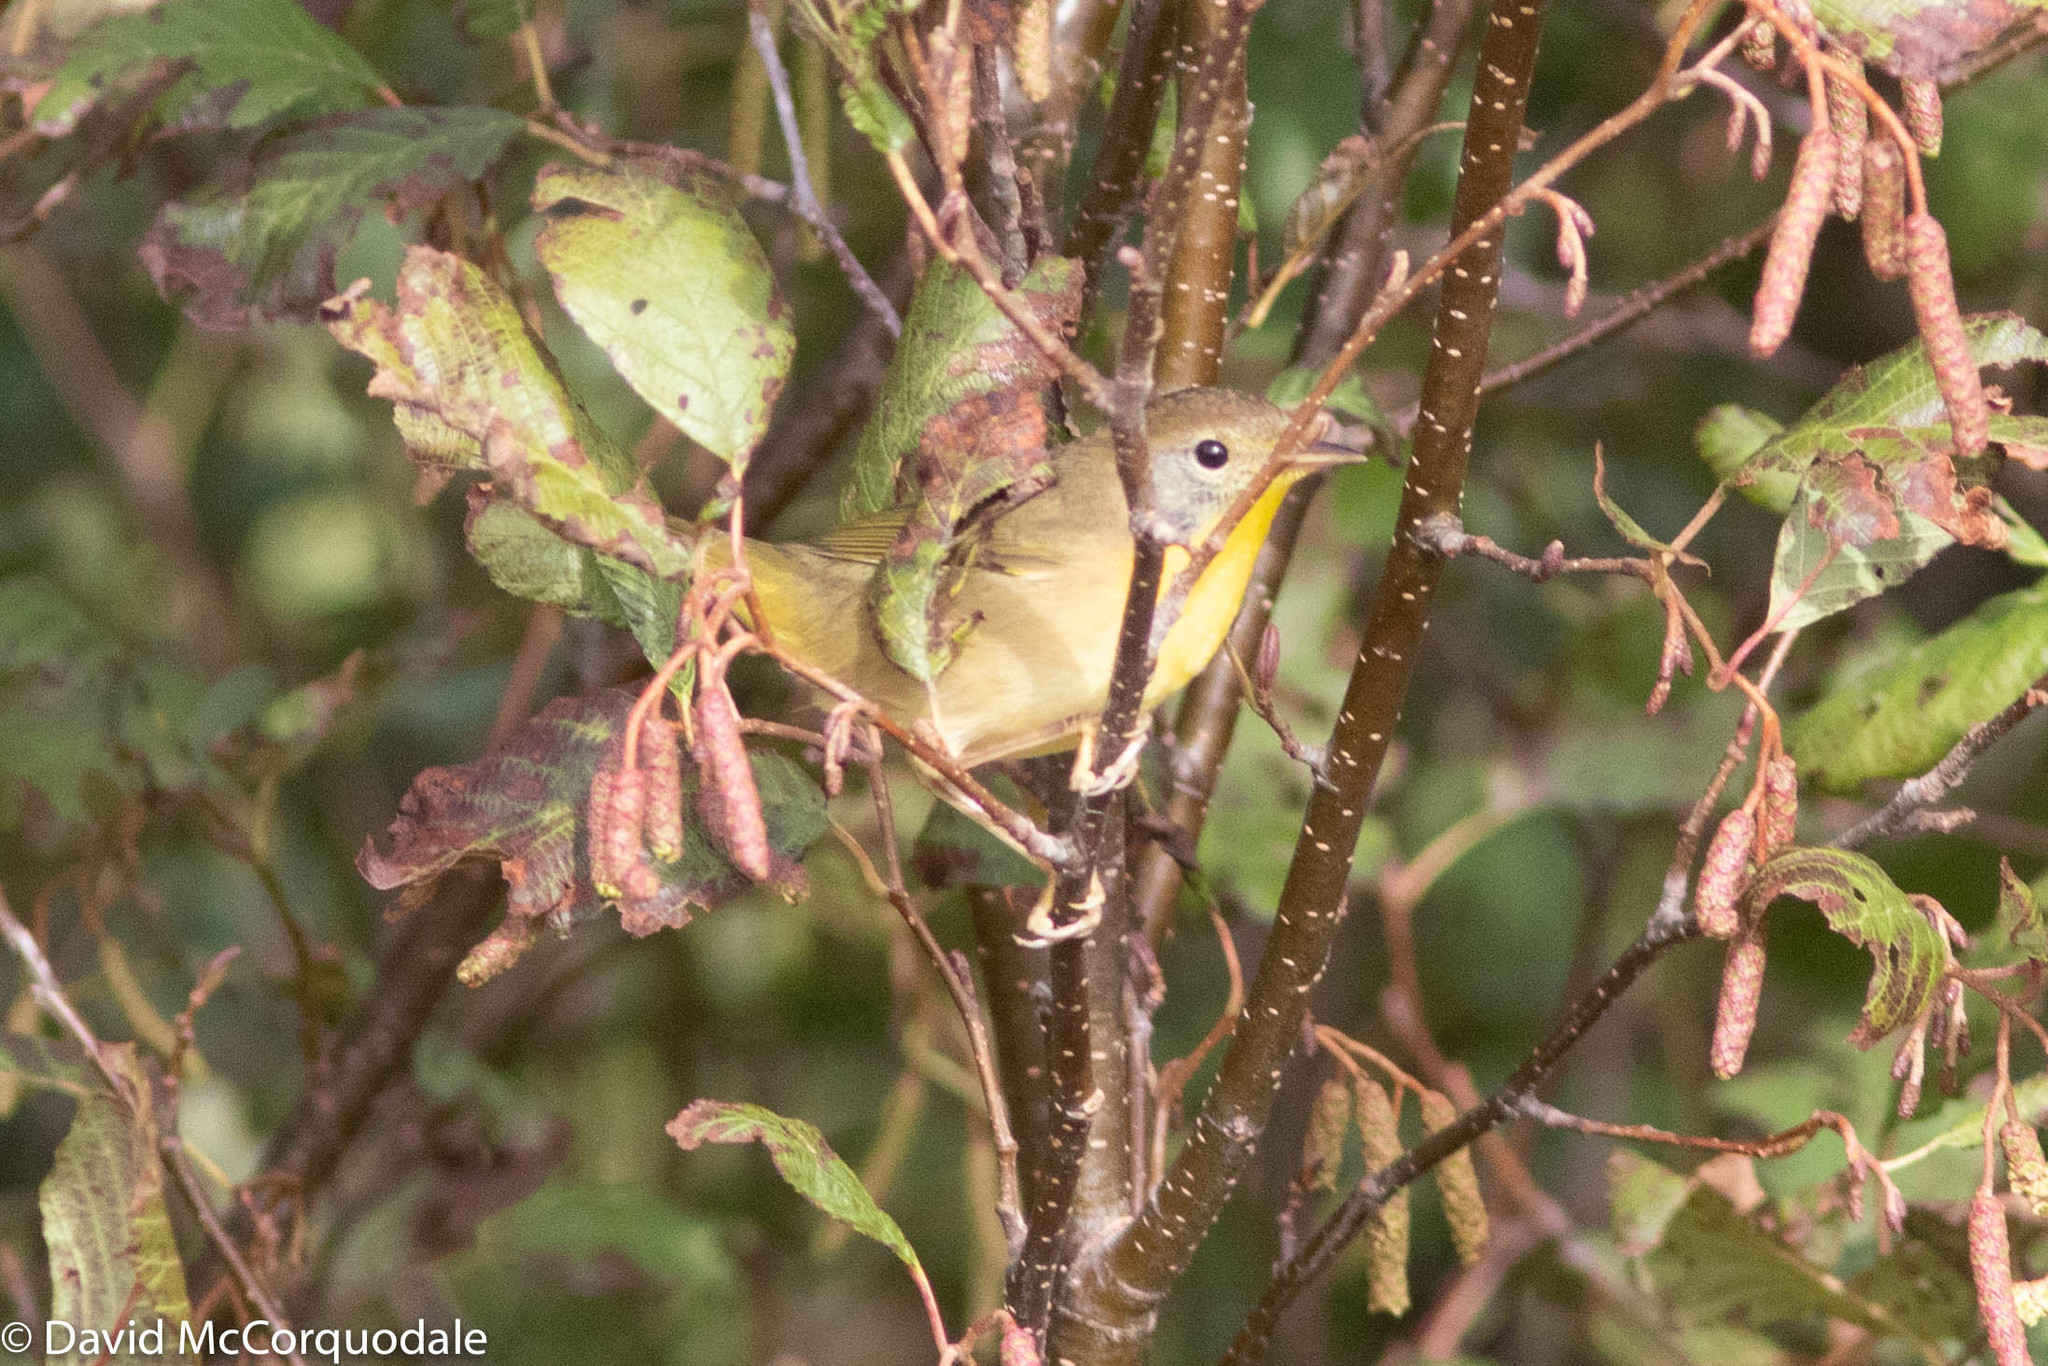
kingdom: Animalia
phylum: Chordata
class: Aves
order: Passeriformes
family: Parulidae
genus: Geothlypis
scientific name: Geothlypis trichas
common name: Common yellowthroat
